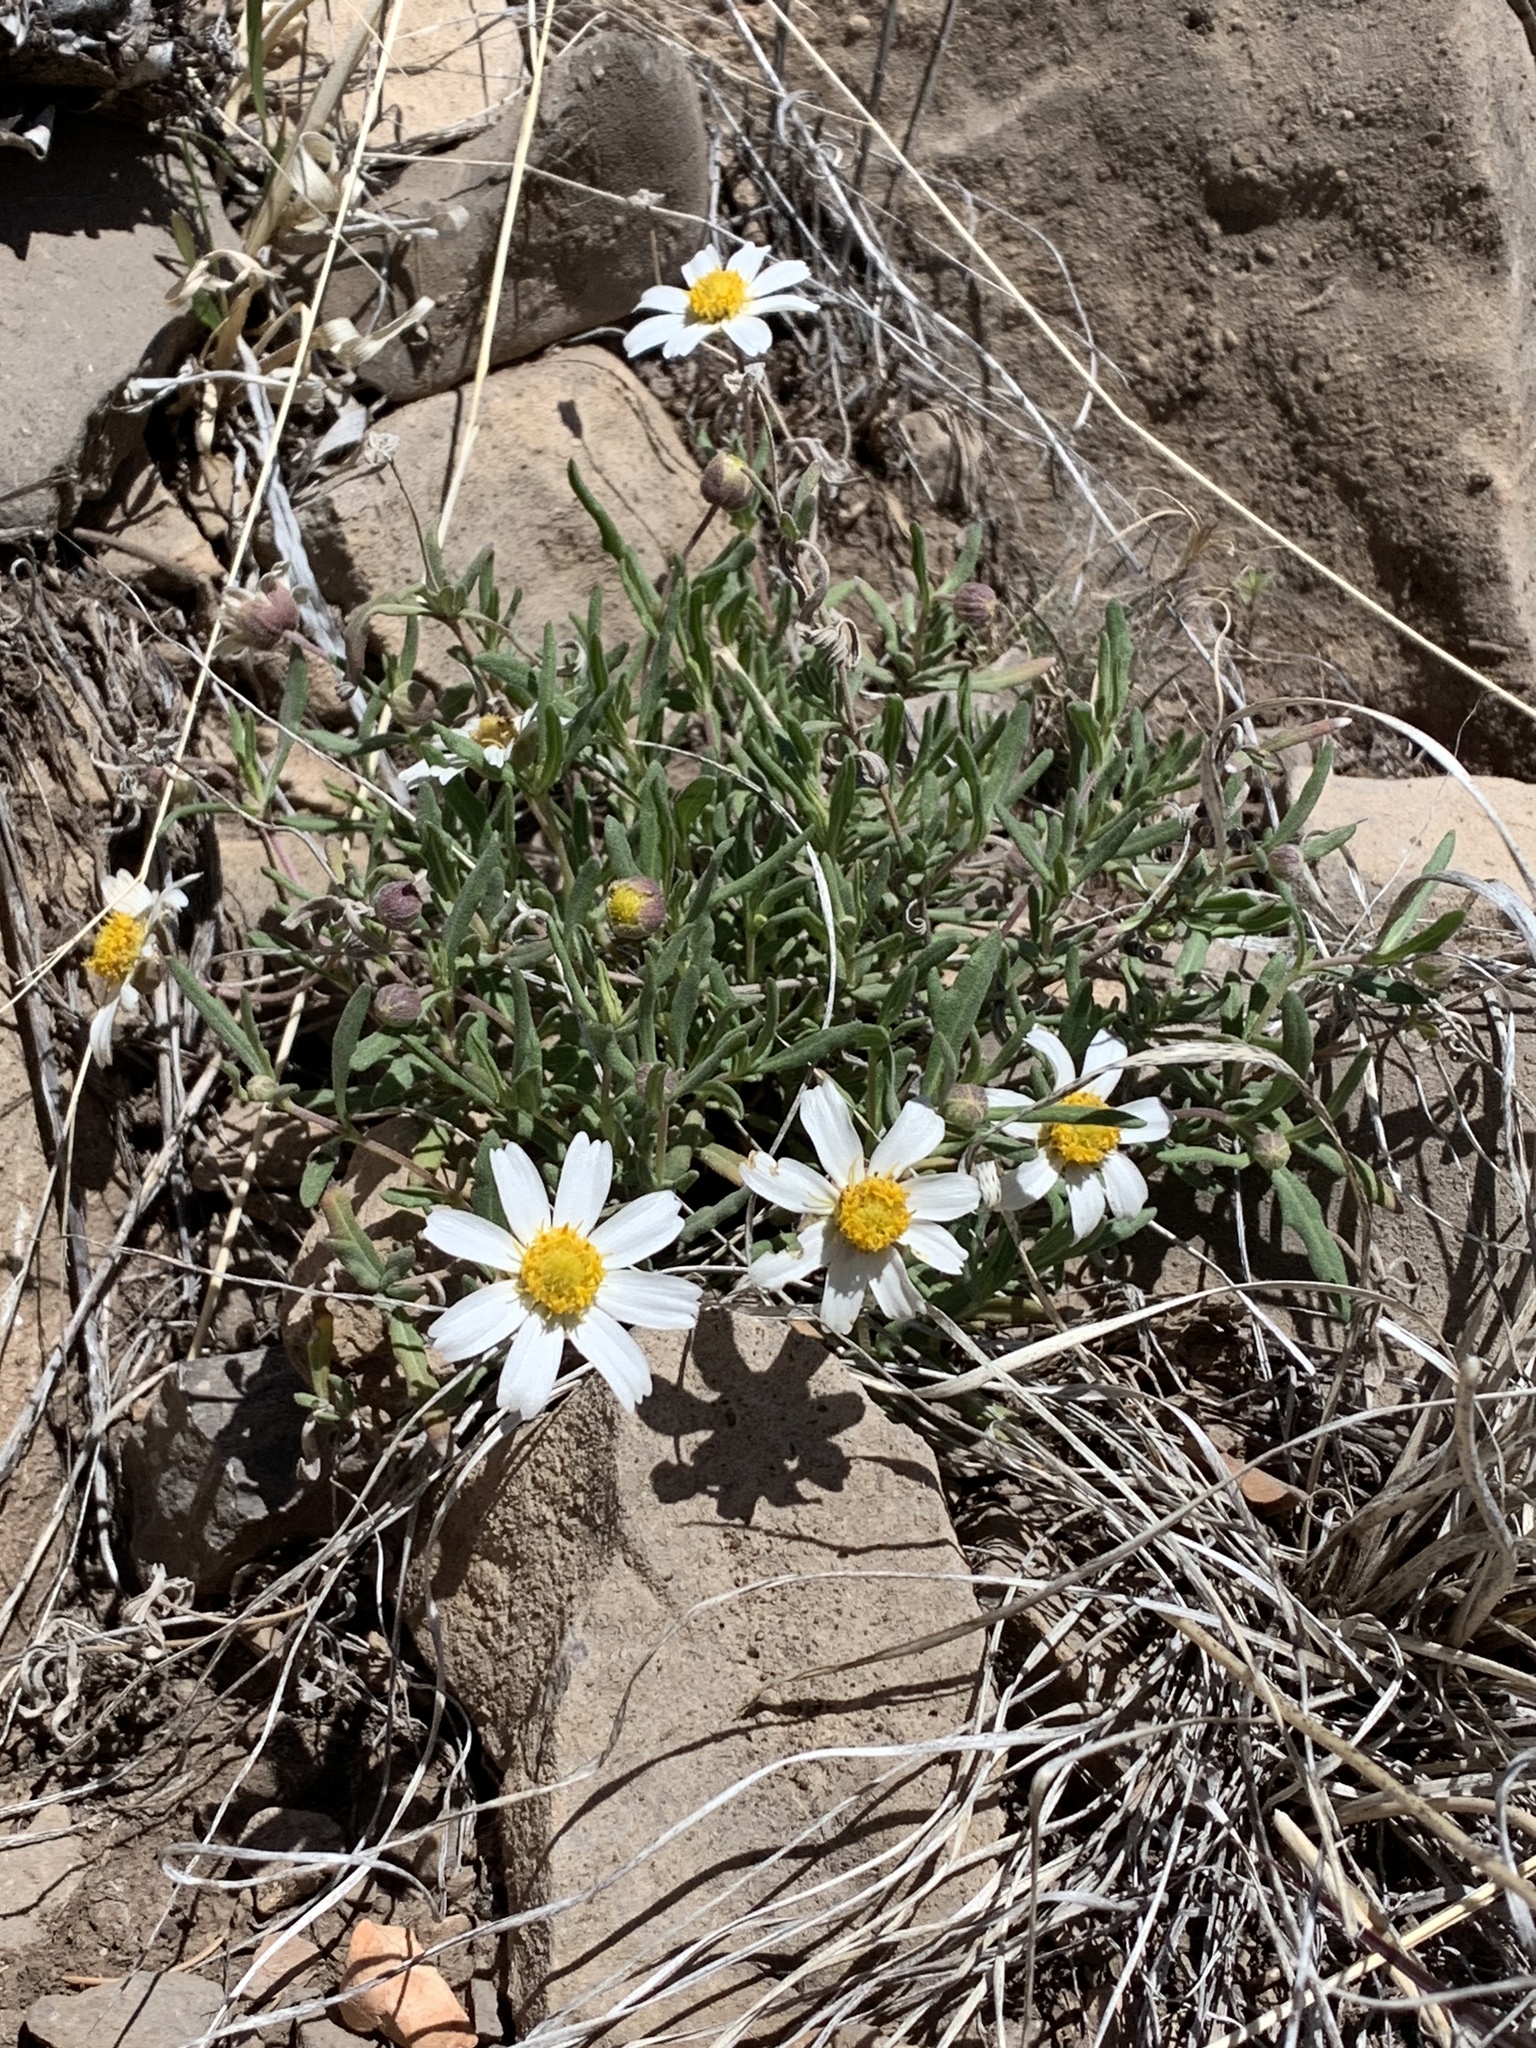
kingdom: Plantae
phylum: Tracheophyta
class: Magnoliopsida
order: Asterales
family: Asteraceae
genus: Melampodium
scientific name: Melampodium leucanthum
